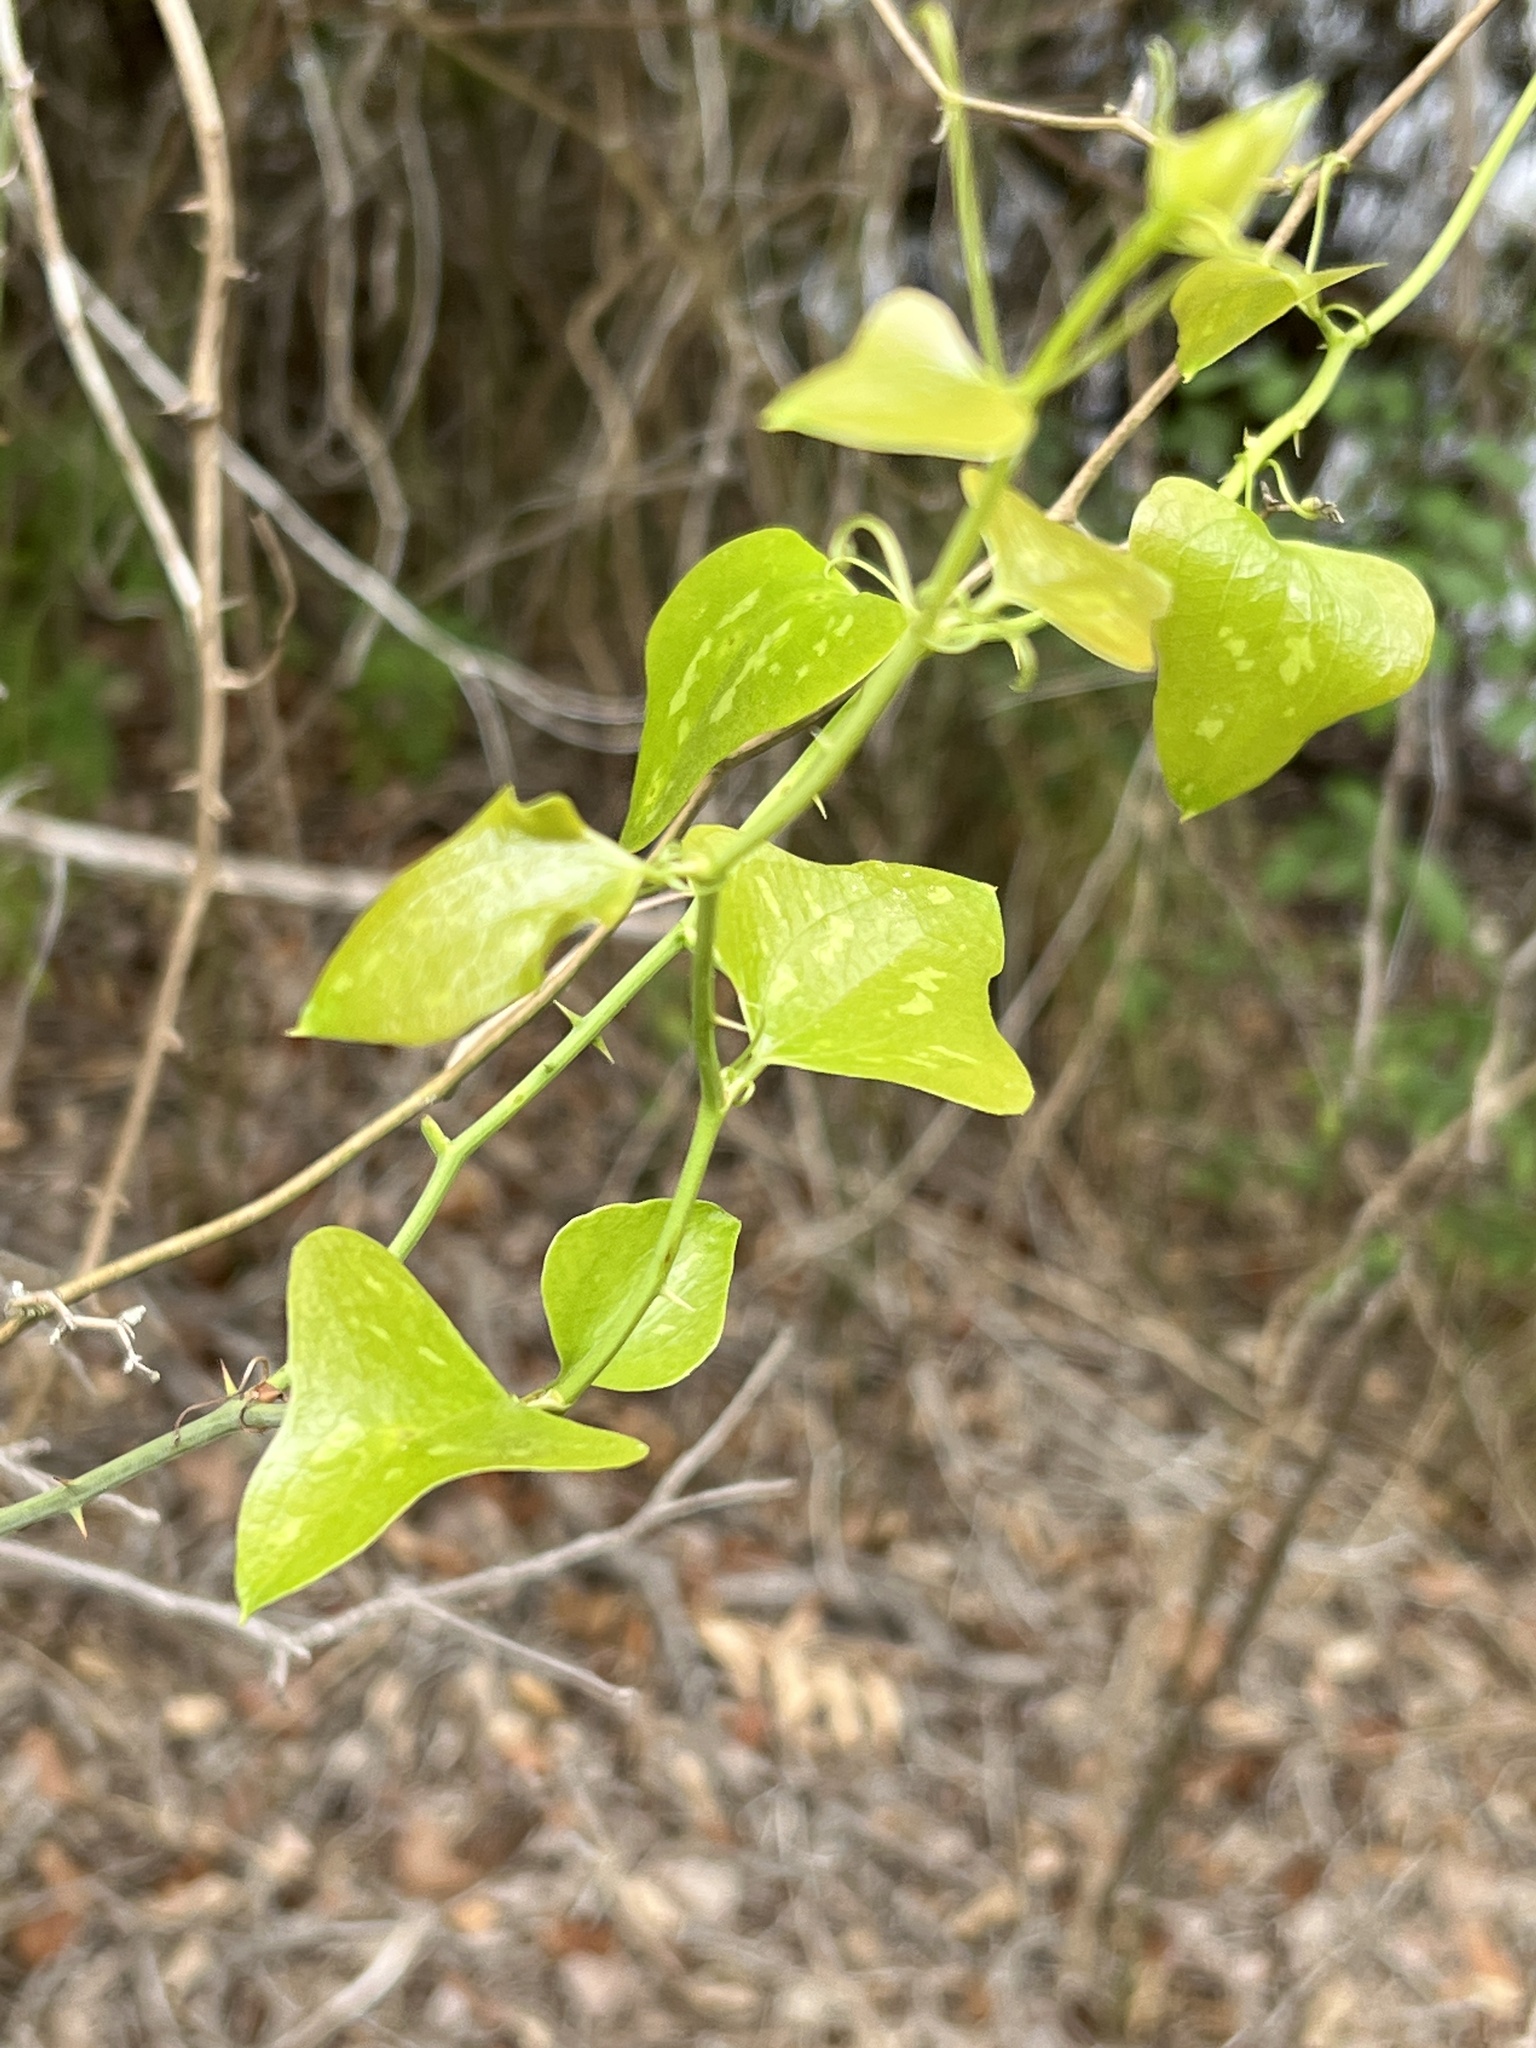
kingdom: Plantae
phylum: Tracheophyta
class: Liliopsida
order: Liliales
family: Smilacaceae
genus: Smilax
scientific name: Smilax bona-nox
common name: Catbrier
